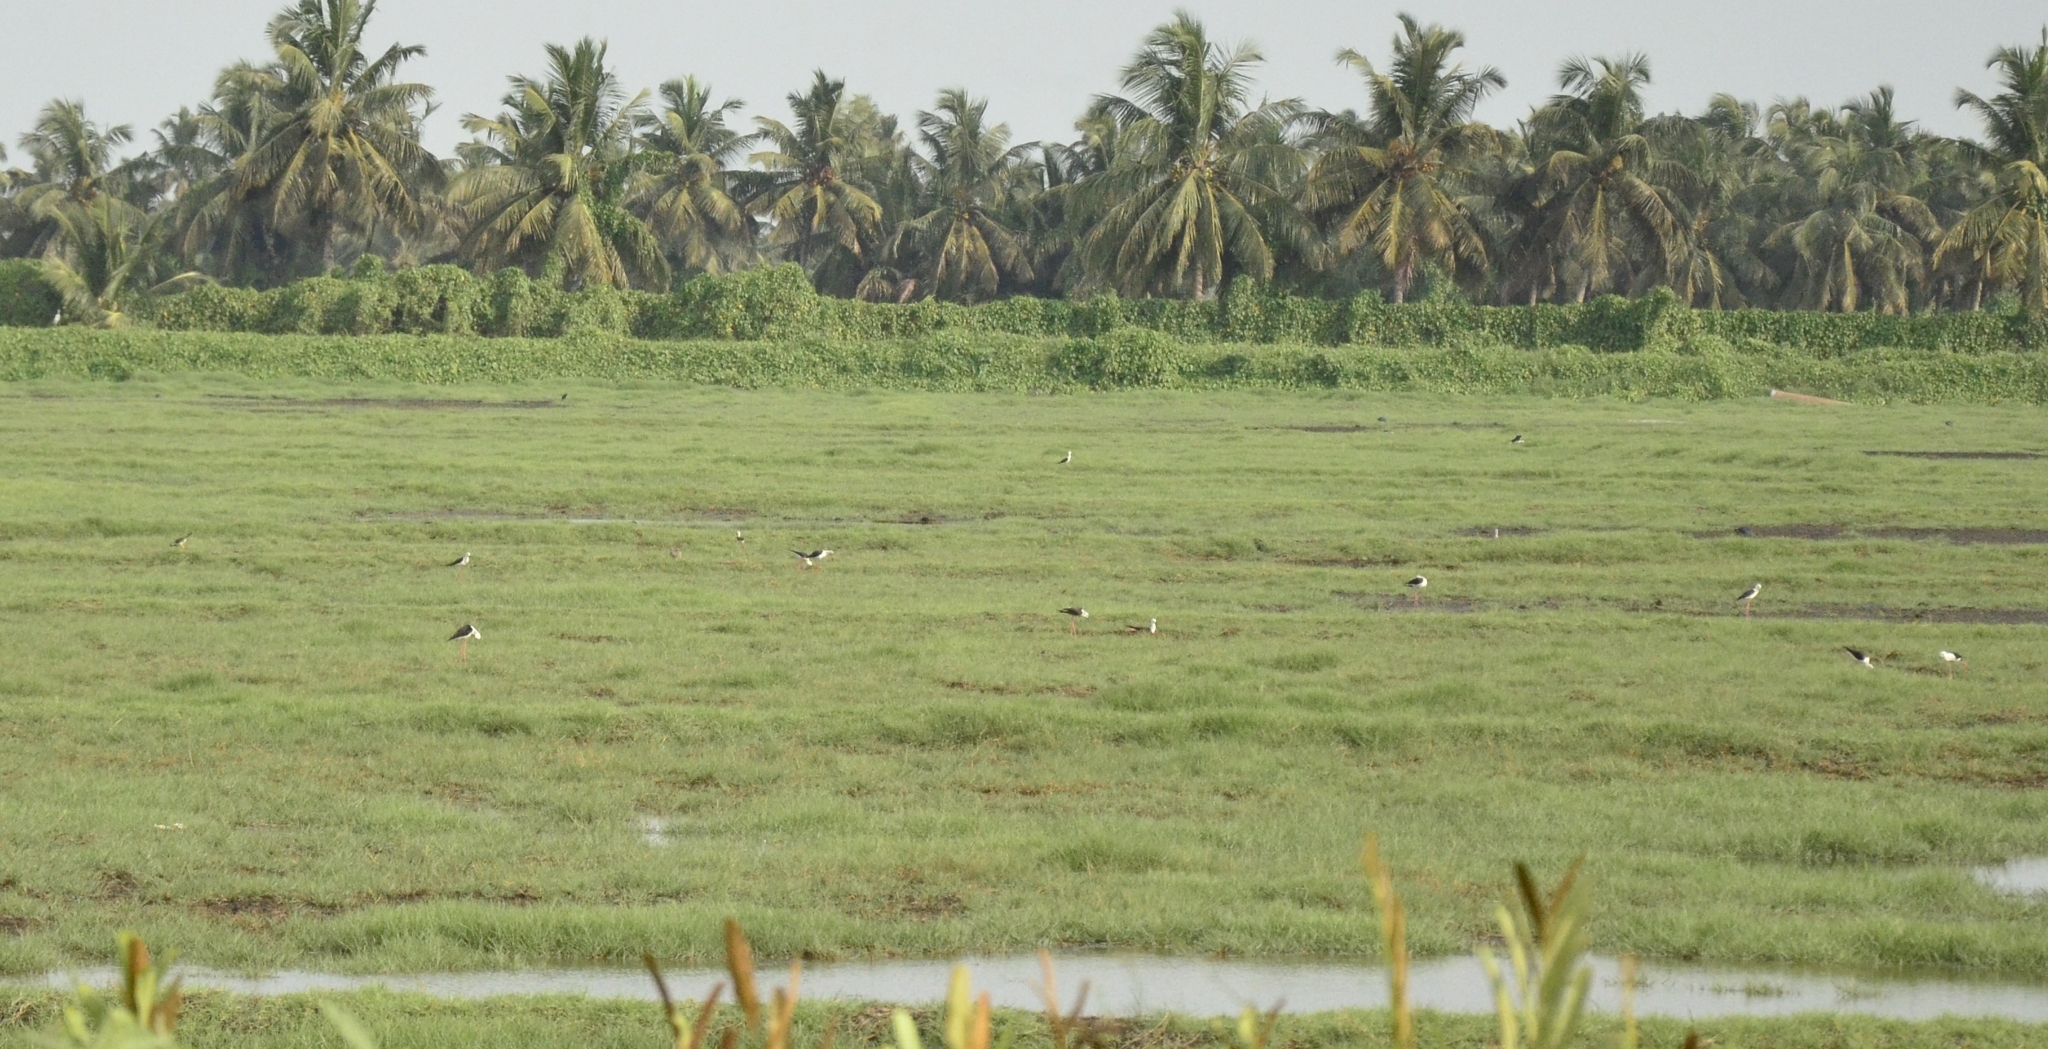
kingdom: Animalia
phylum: Chordata
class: Aves
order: Charadriiformes
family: Recurvirostridae
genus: Himantopus
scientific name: Himantopus himantopus
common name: Black-winged stilt
